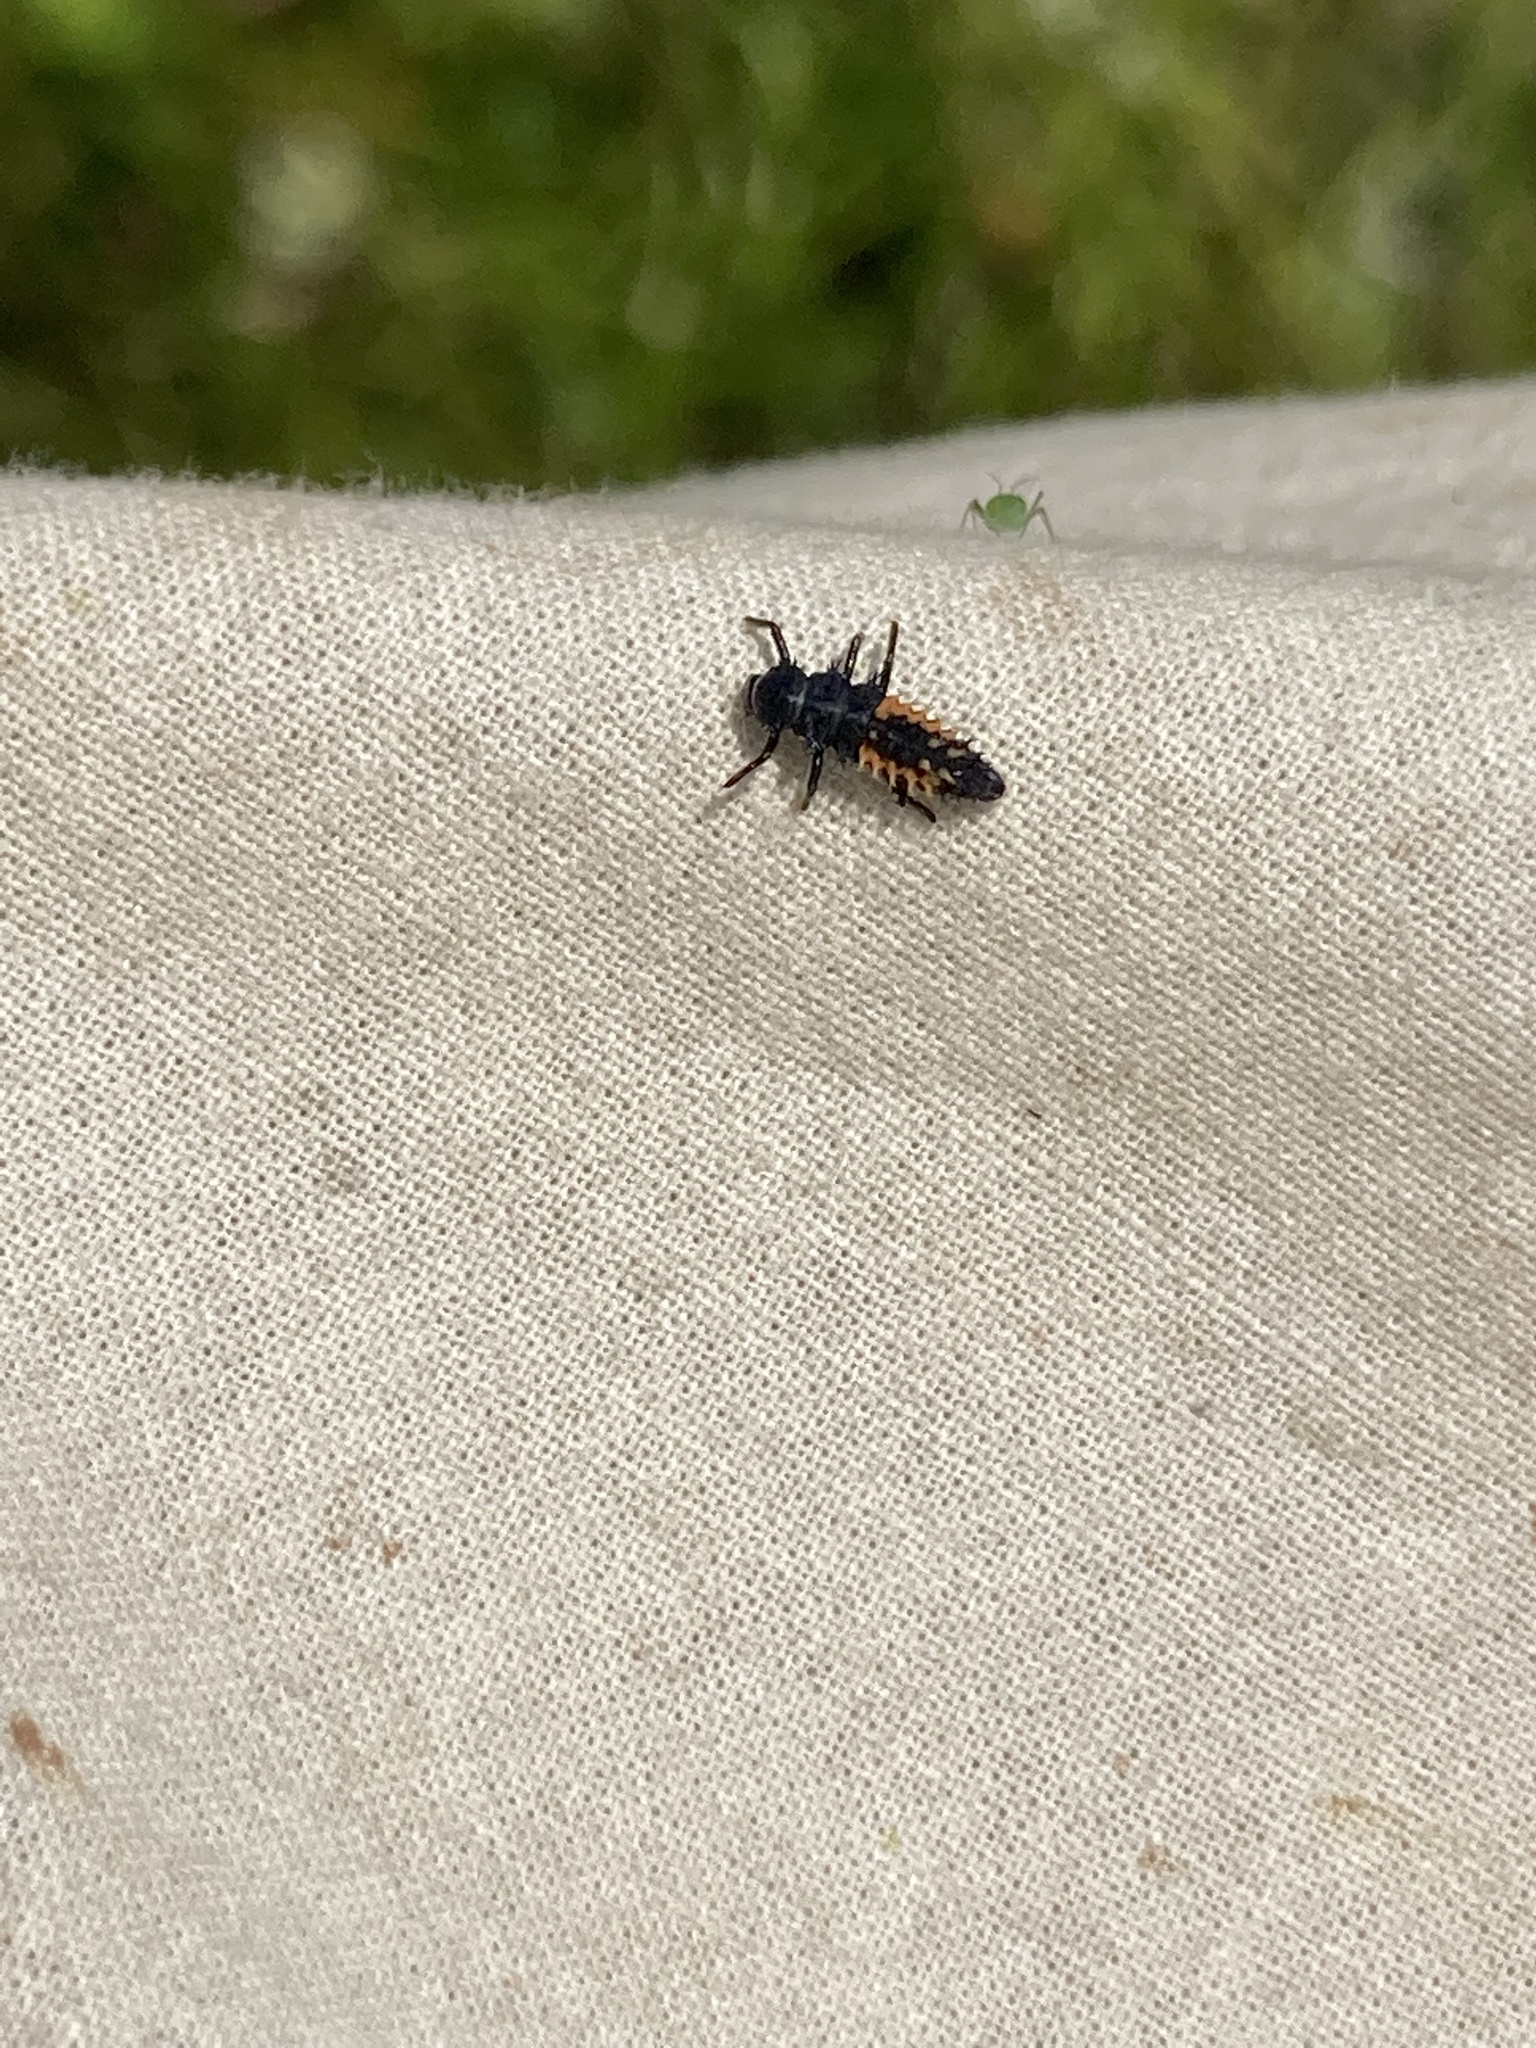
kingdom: Animalia
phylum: Arthropoda
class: Insecta
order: Coleoptera
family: Coccinellidae
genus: Harmonia
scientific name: Harmonia axyridis
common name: Harlequin ladybird
